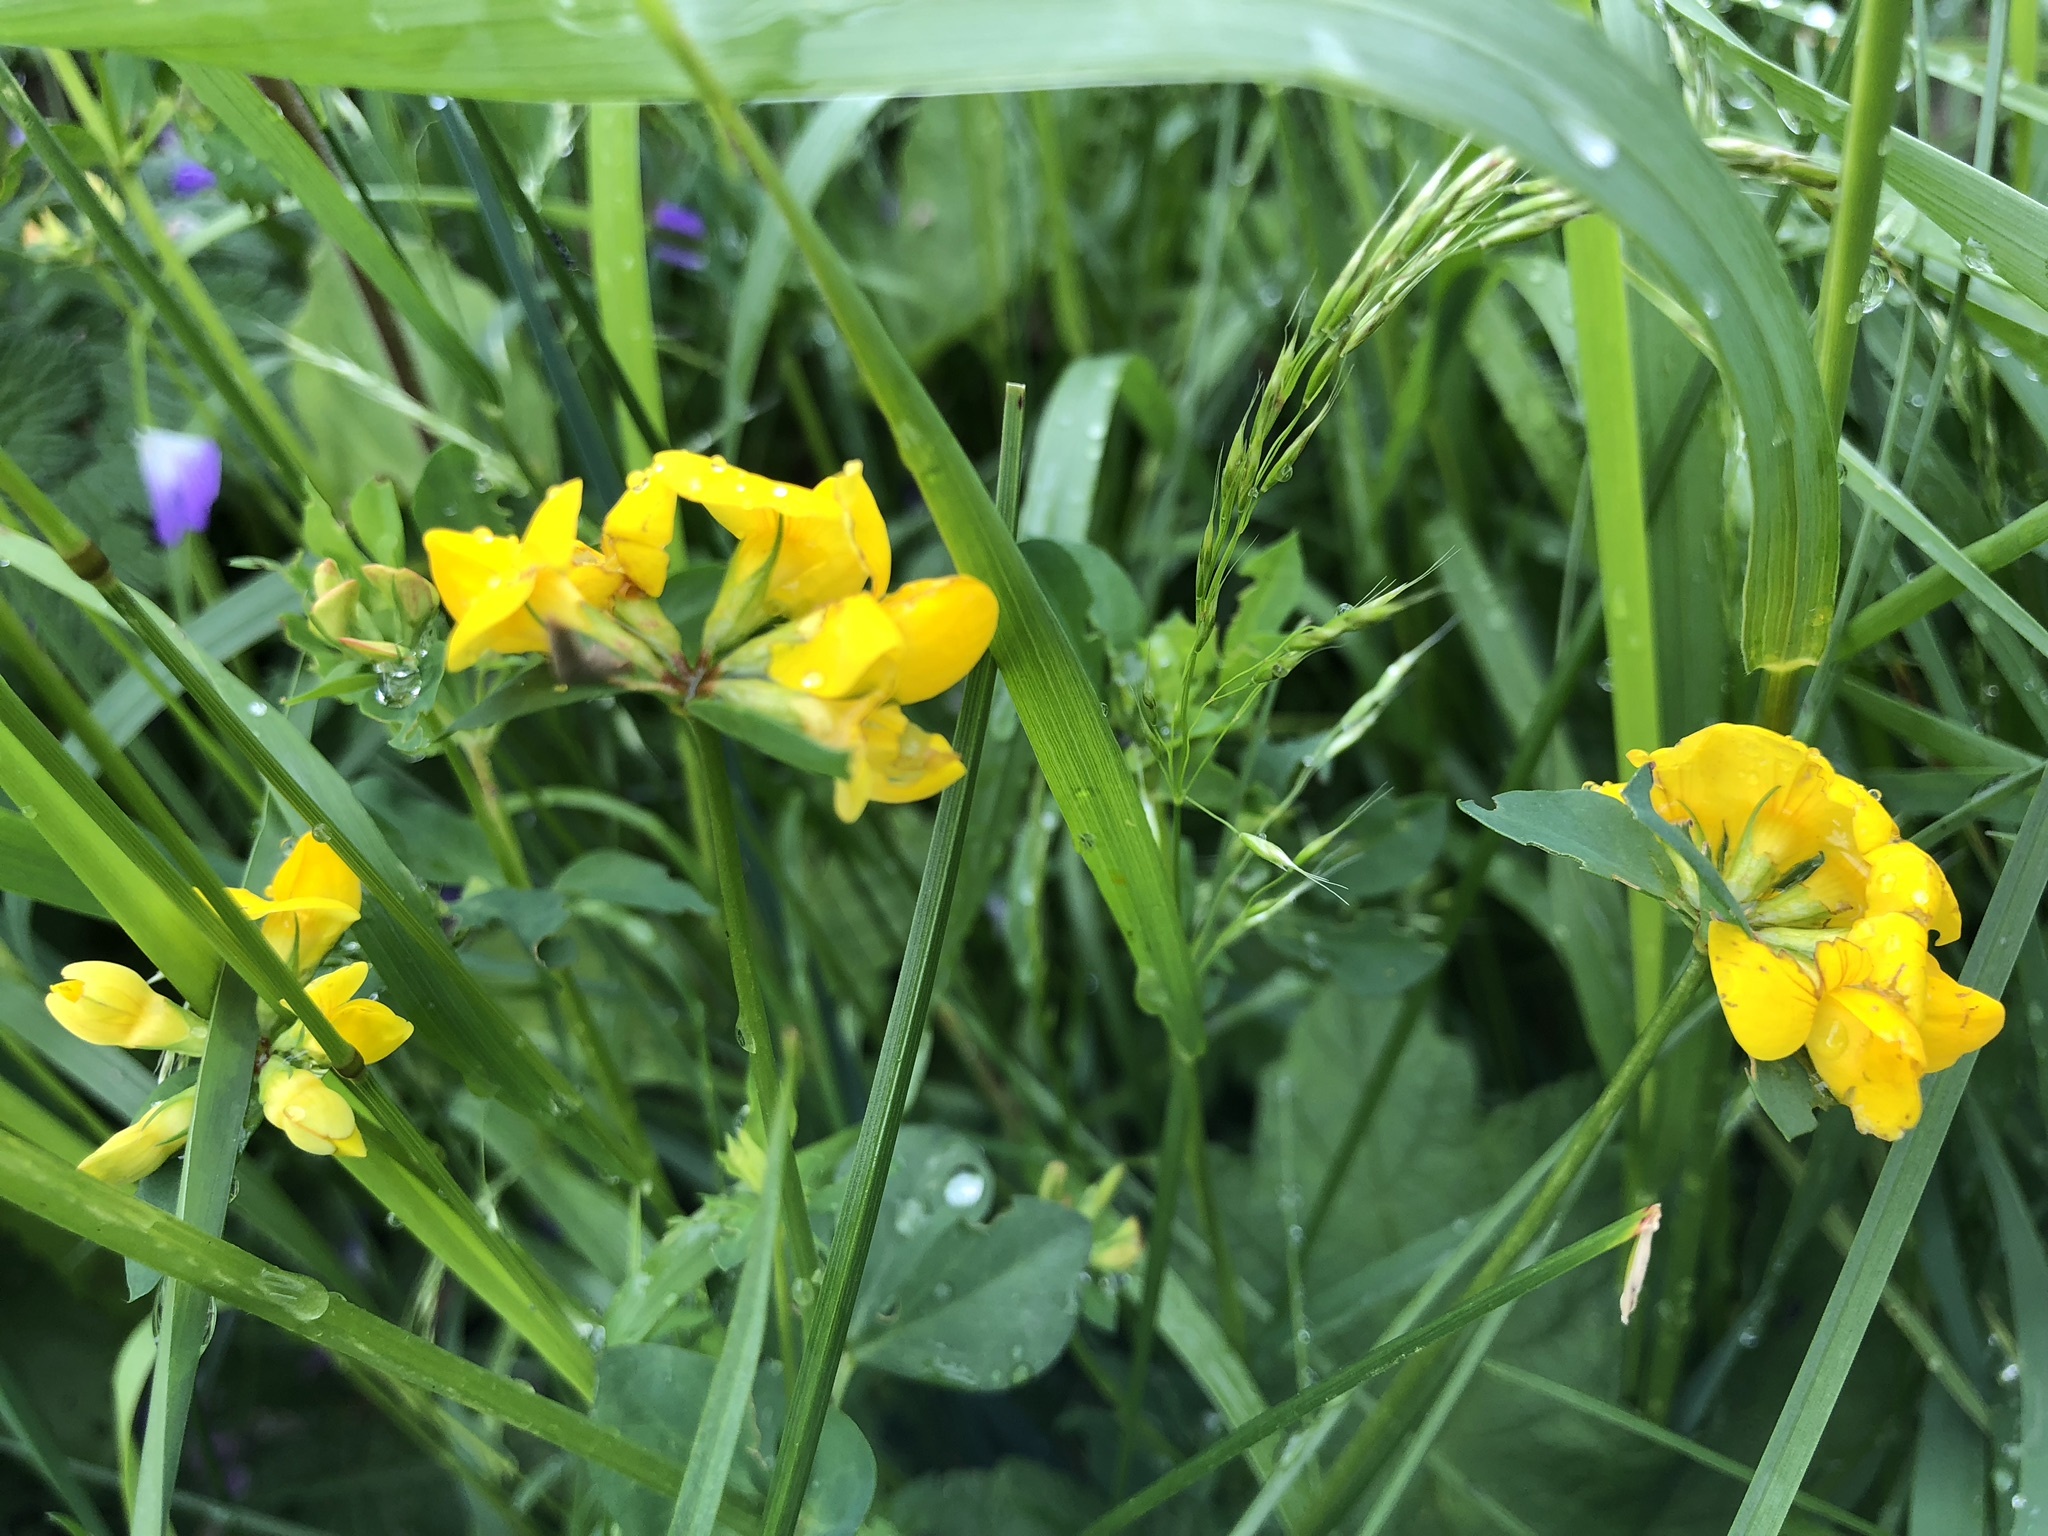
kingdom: Plantae
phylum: Tracheophyta
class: Magnoliopsida
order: Fabales
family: Fabaceae
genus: Lotus
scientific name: Lotus corniculatus
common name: Common bird's-foot-trefoil
